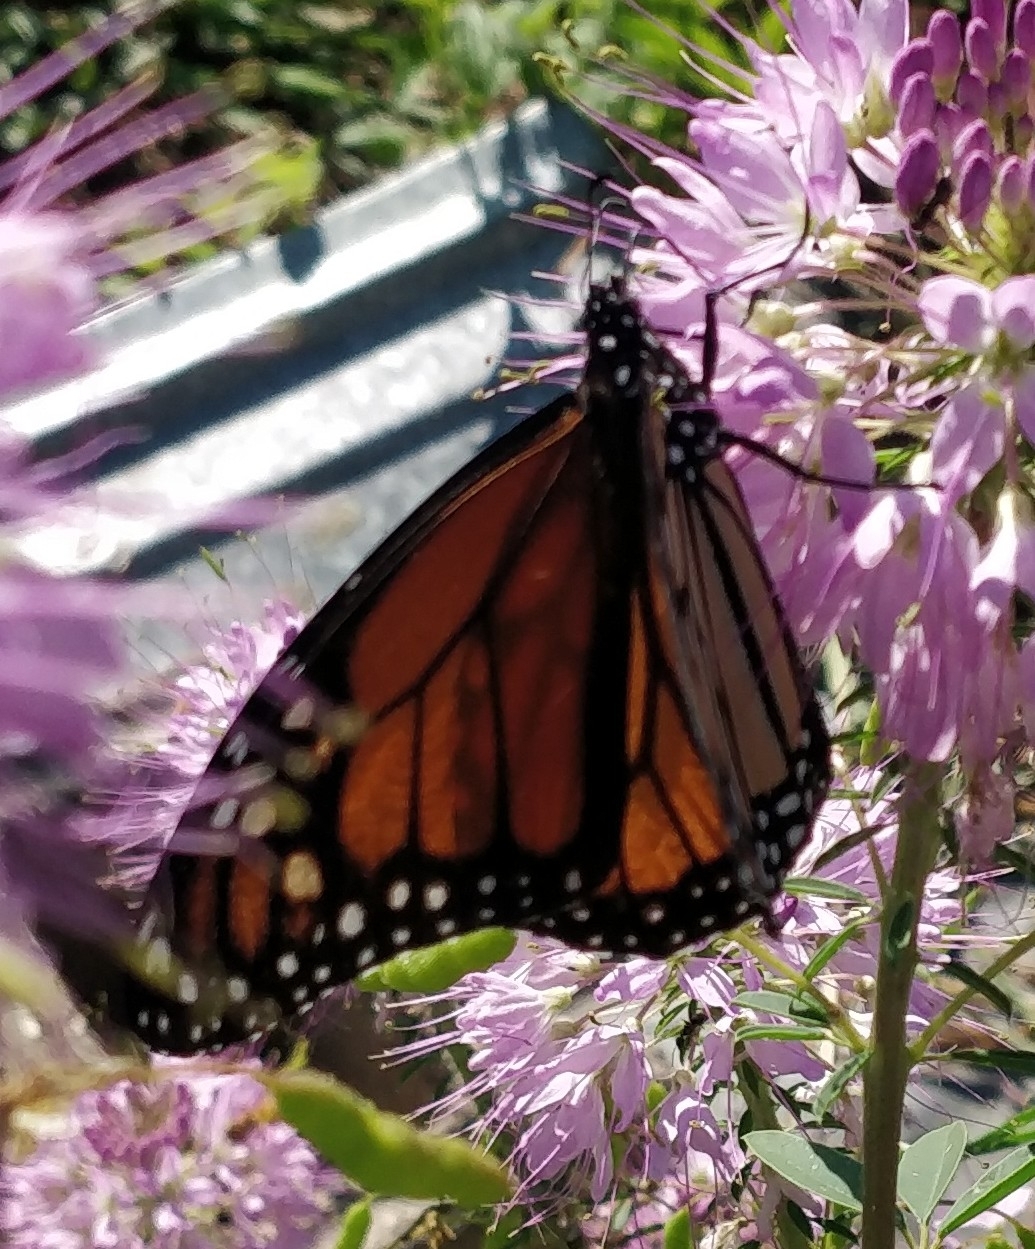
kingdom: Animalia
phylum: Arthropoda
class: Insecta
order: Lepidoptera
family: Nymphalidae
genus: Danaus
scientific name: Danaus plexippus
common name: Monarch
